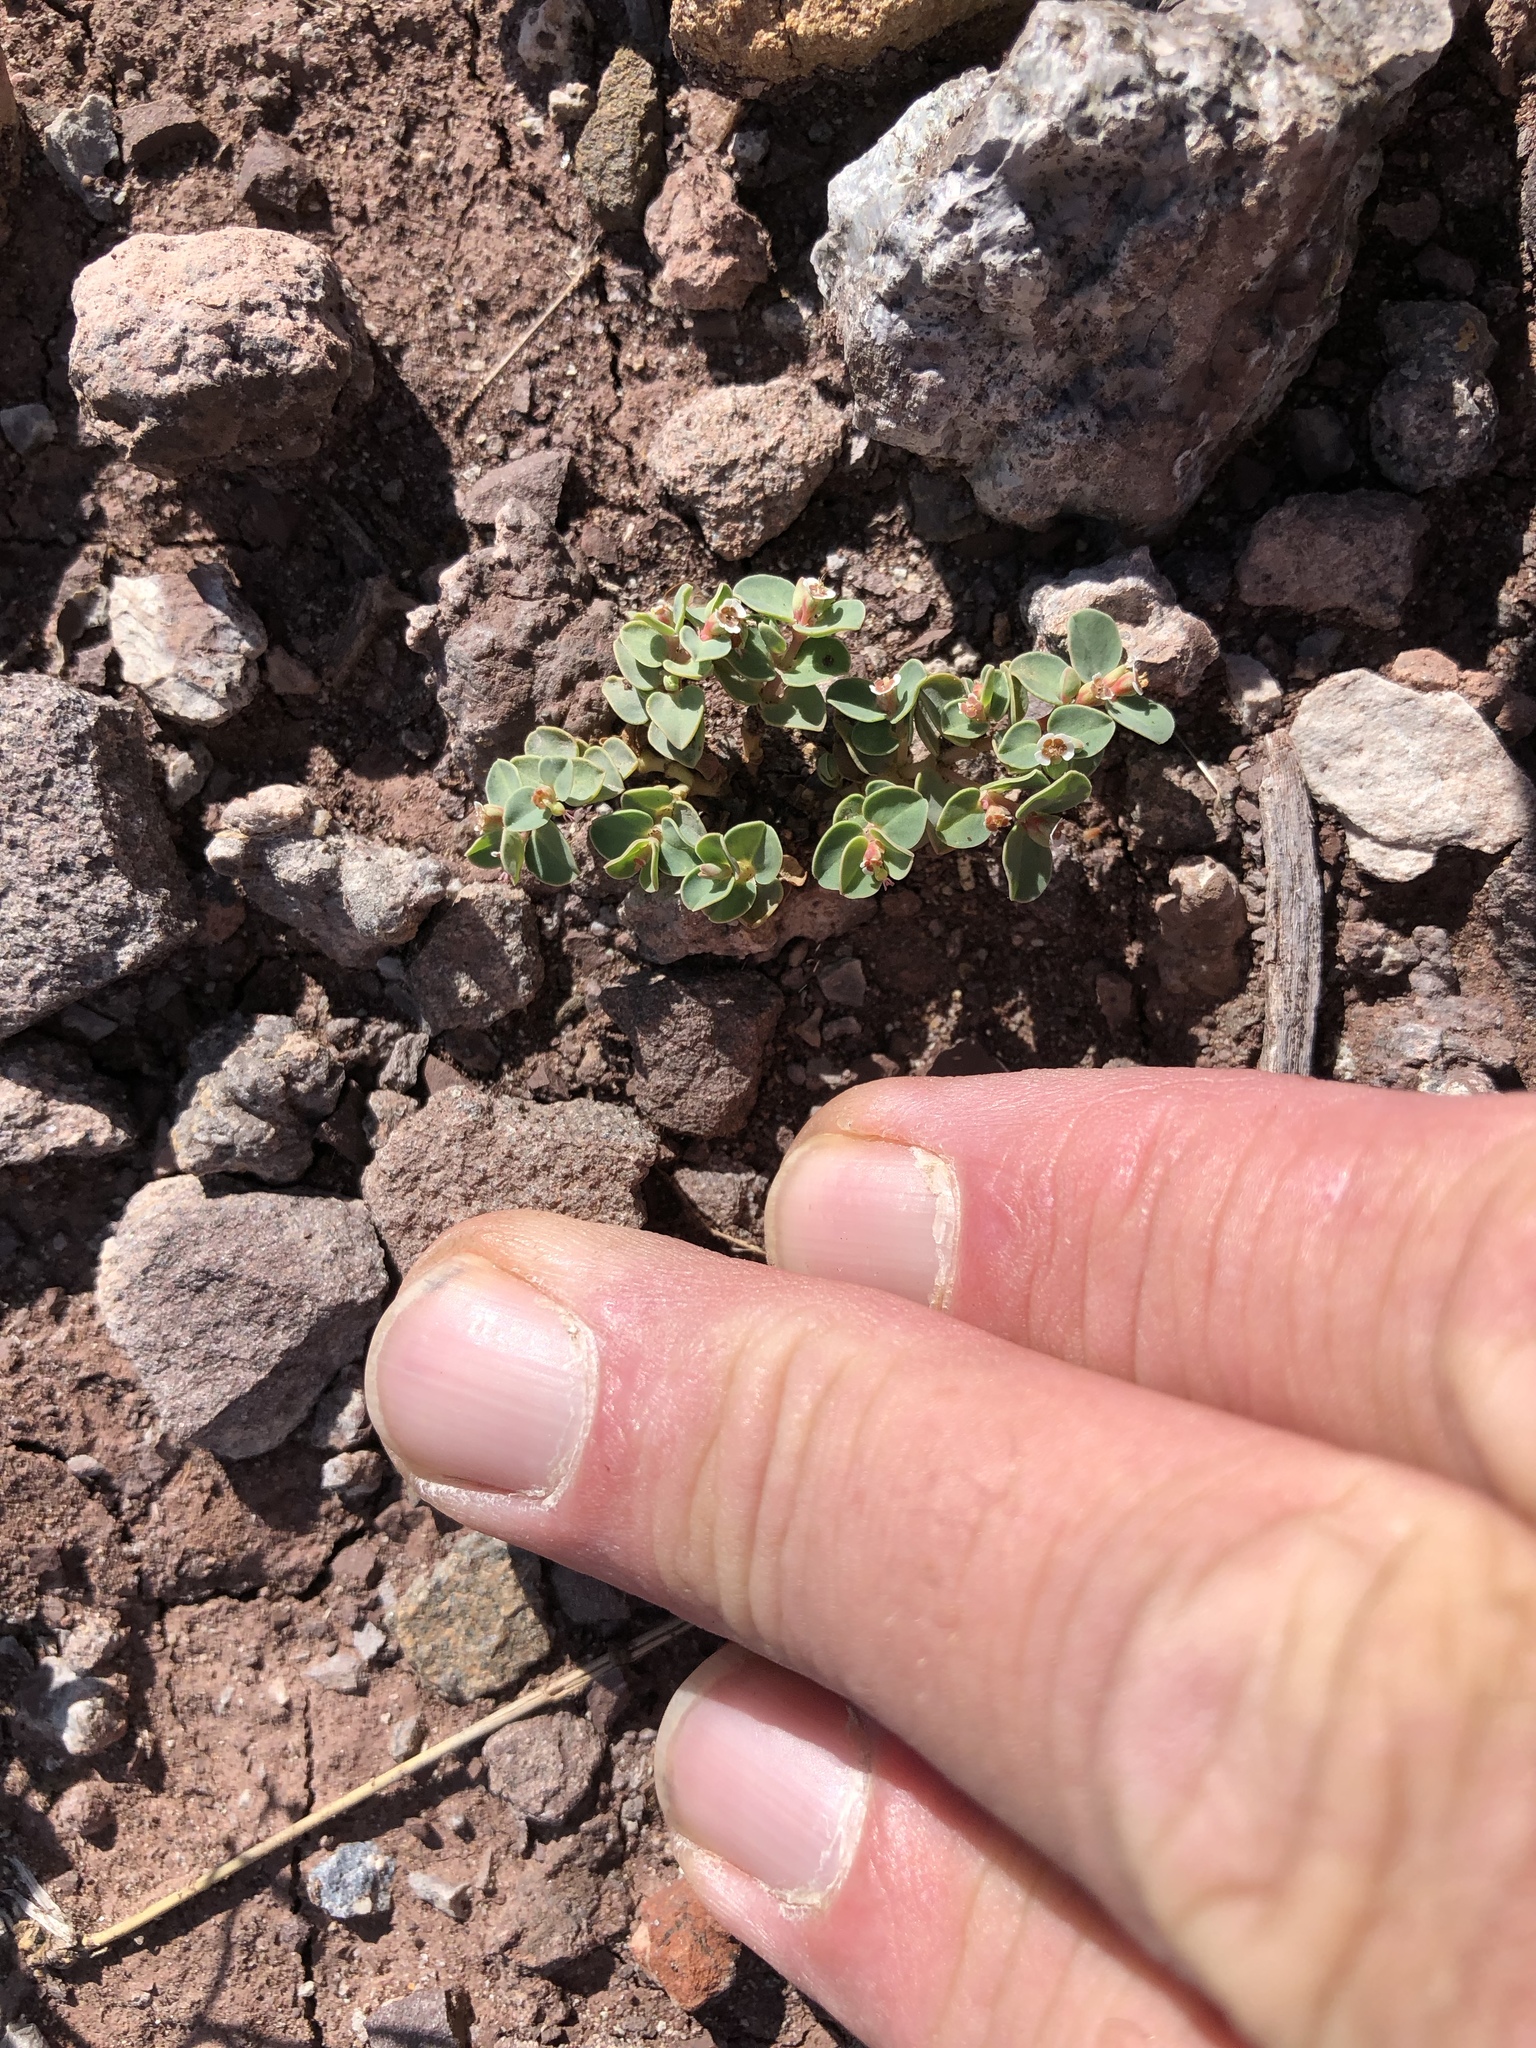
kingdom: Plantae
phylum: Tracheophyta
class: Magnoliopsida
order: Malpighiales
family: Euphorbiaceae
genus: Euphorbia
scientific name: Euphorbia albomarginata
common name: Whitemargin sandmat
